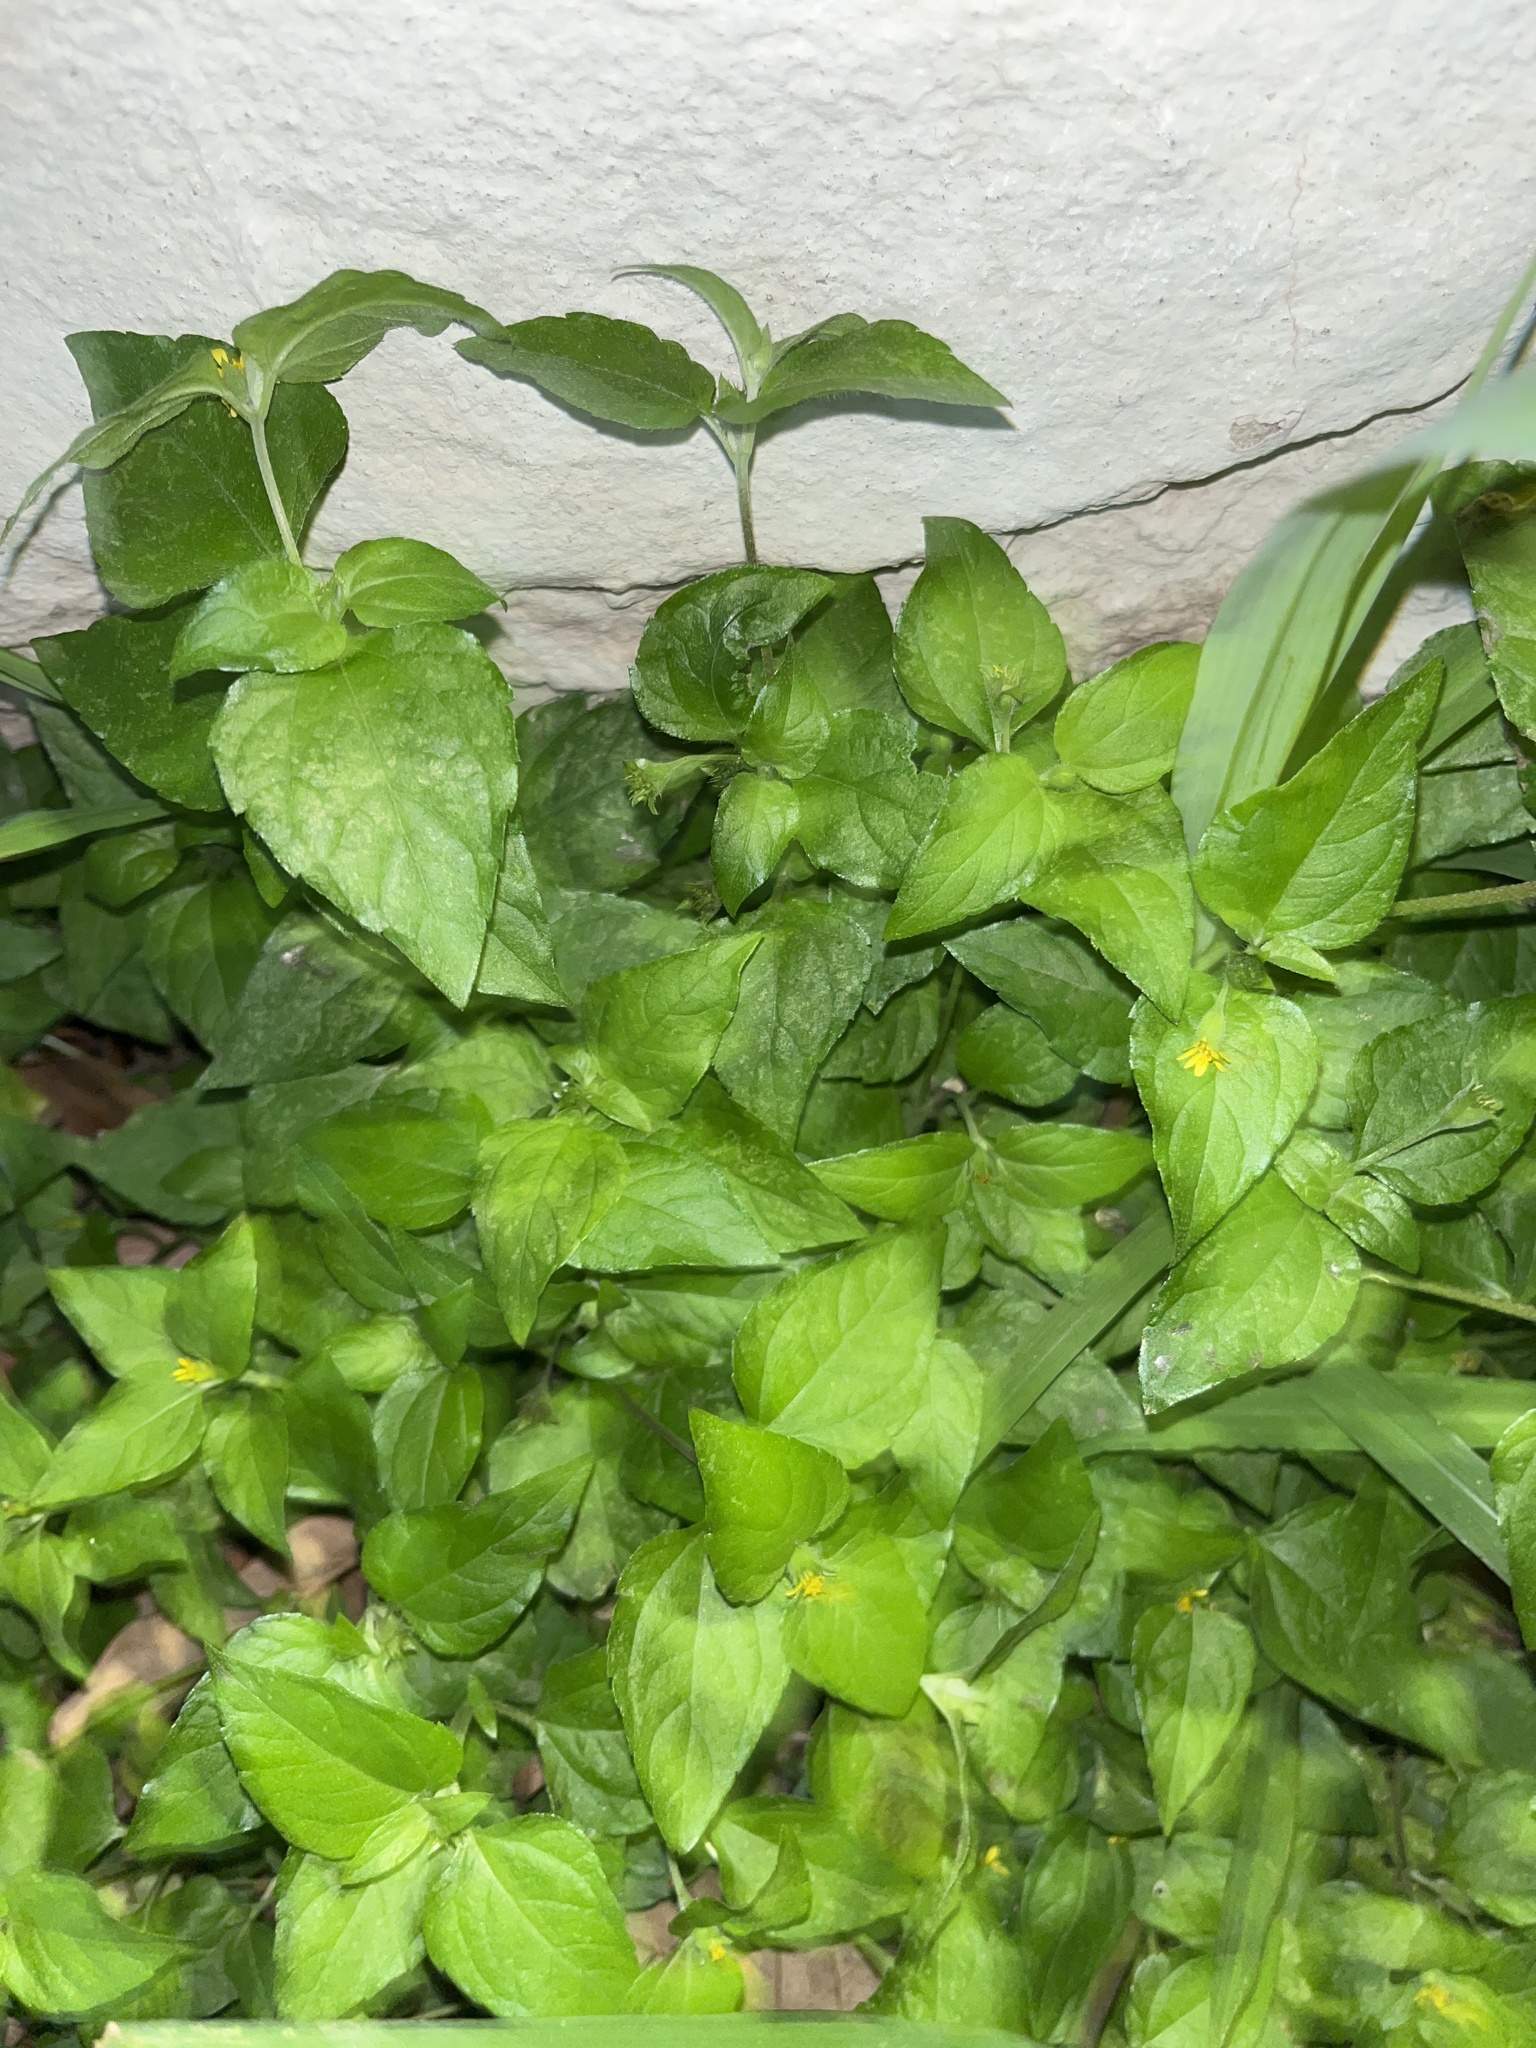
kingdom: Plantae
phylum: Tracheophyta
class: Magnoliopsida
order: Asterales
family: Asteraceae
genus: Calyptocarpus
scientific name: Calyptocarpus vialis
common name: Straggler daisy
